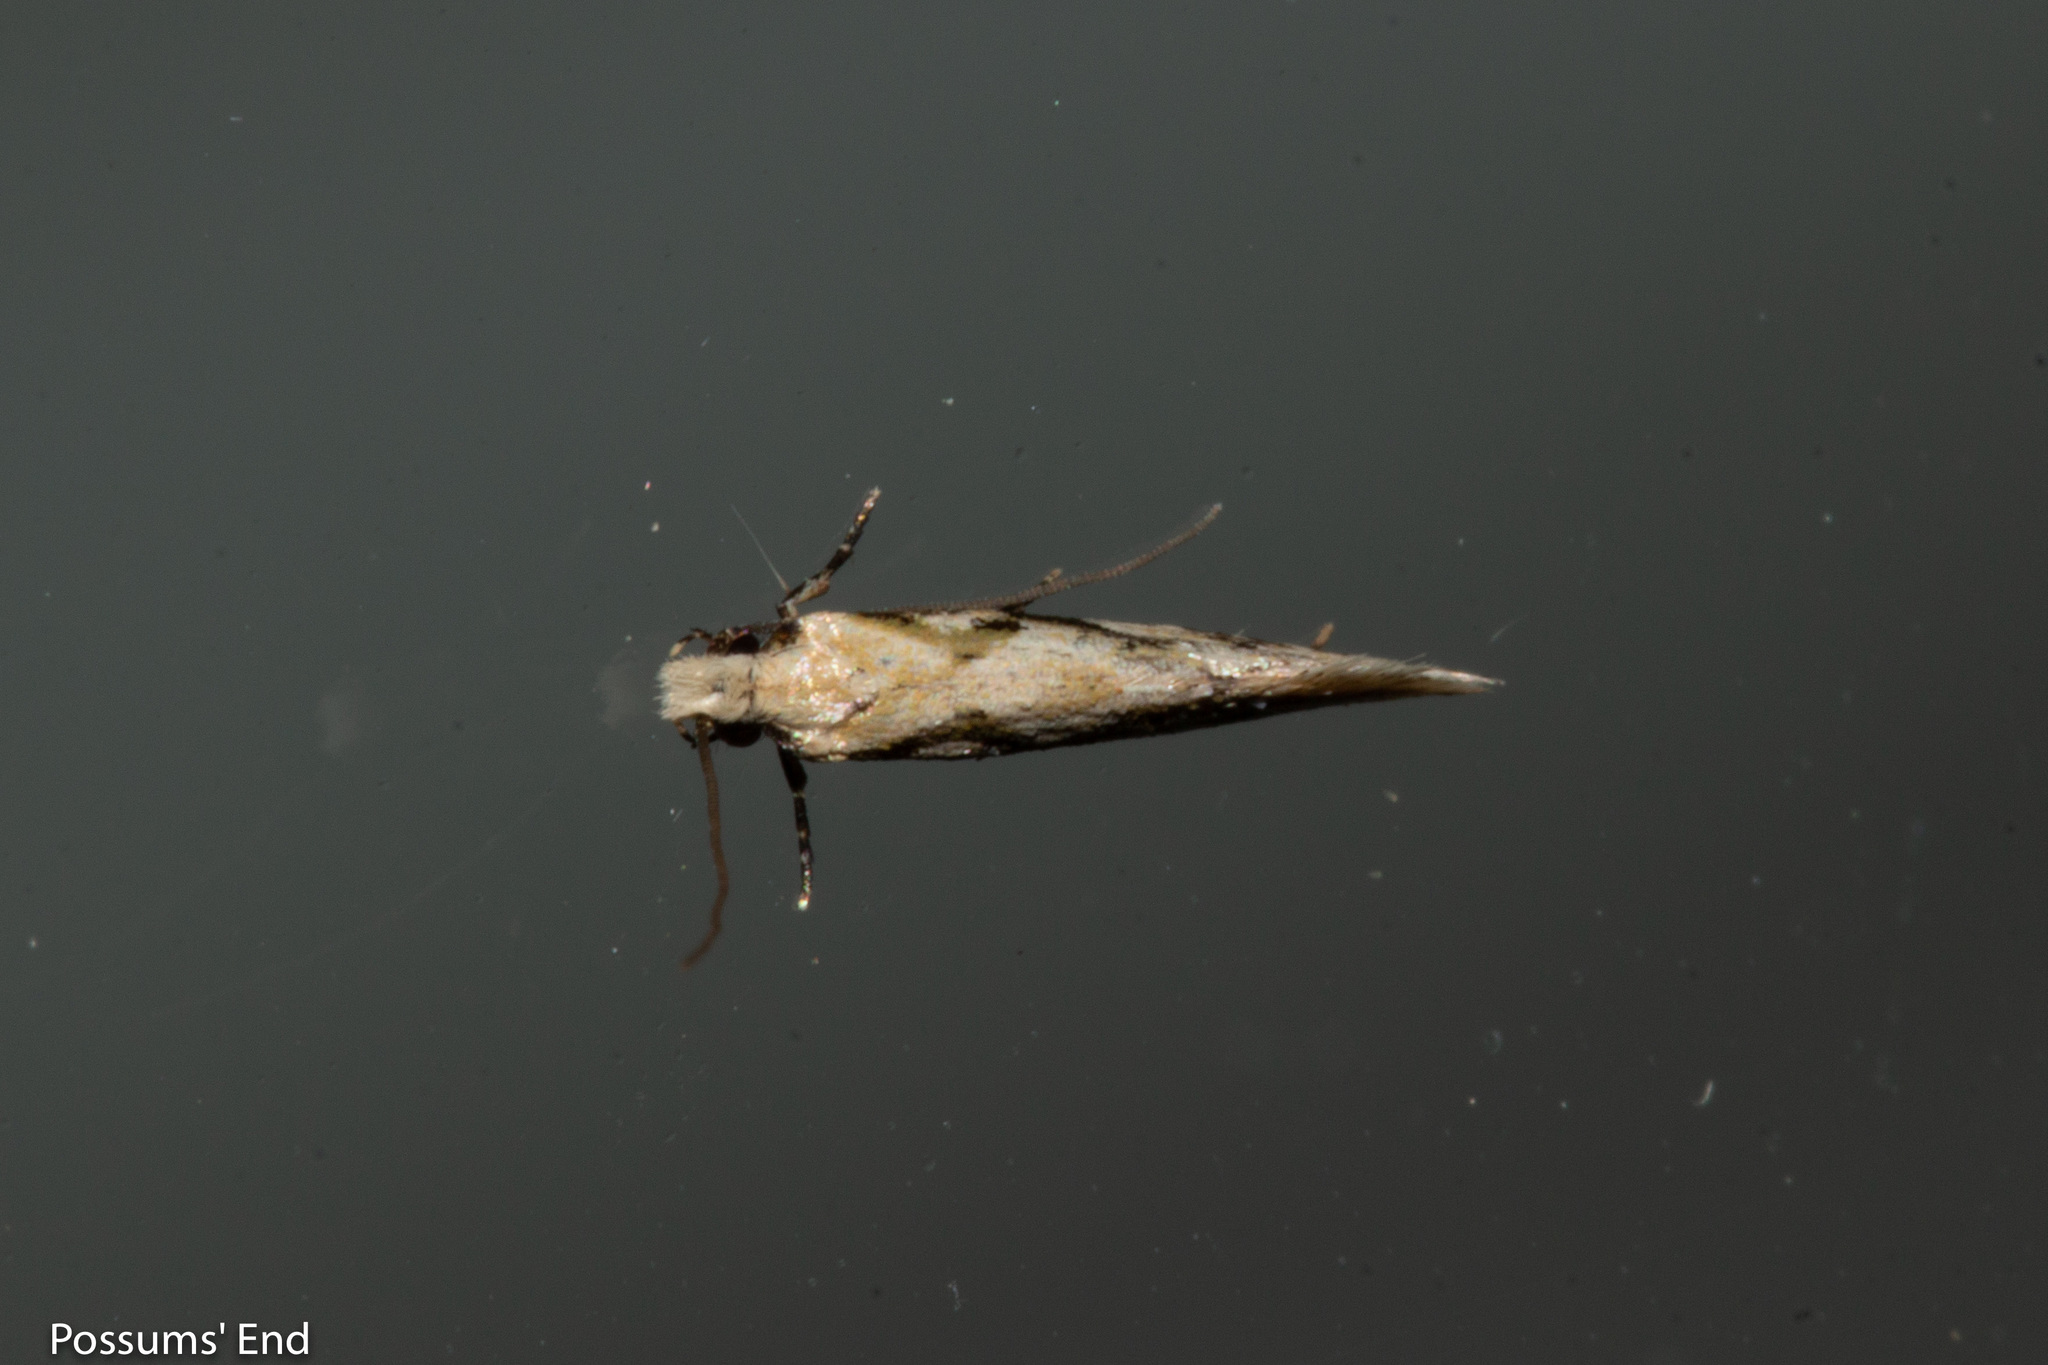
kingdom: Animalia
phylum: Arthropoda
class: Insecta
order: Lepidoptera
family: Tineidae
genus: Crypsitricha
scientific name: Crypsitricha mesotypa
